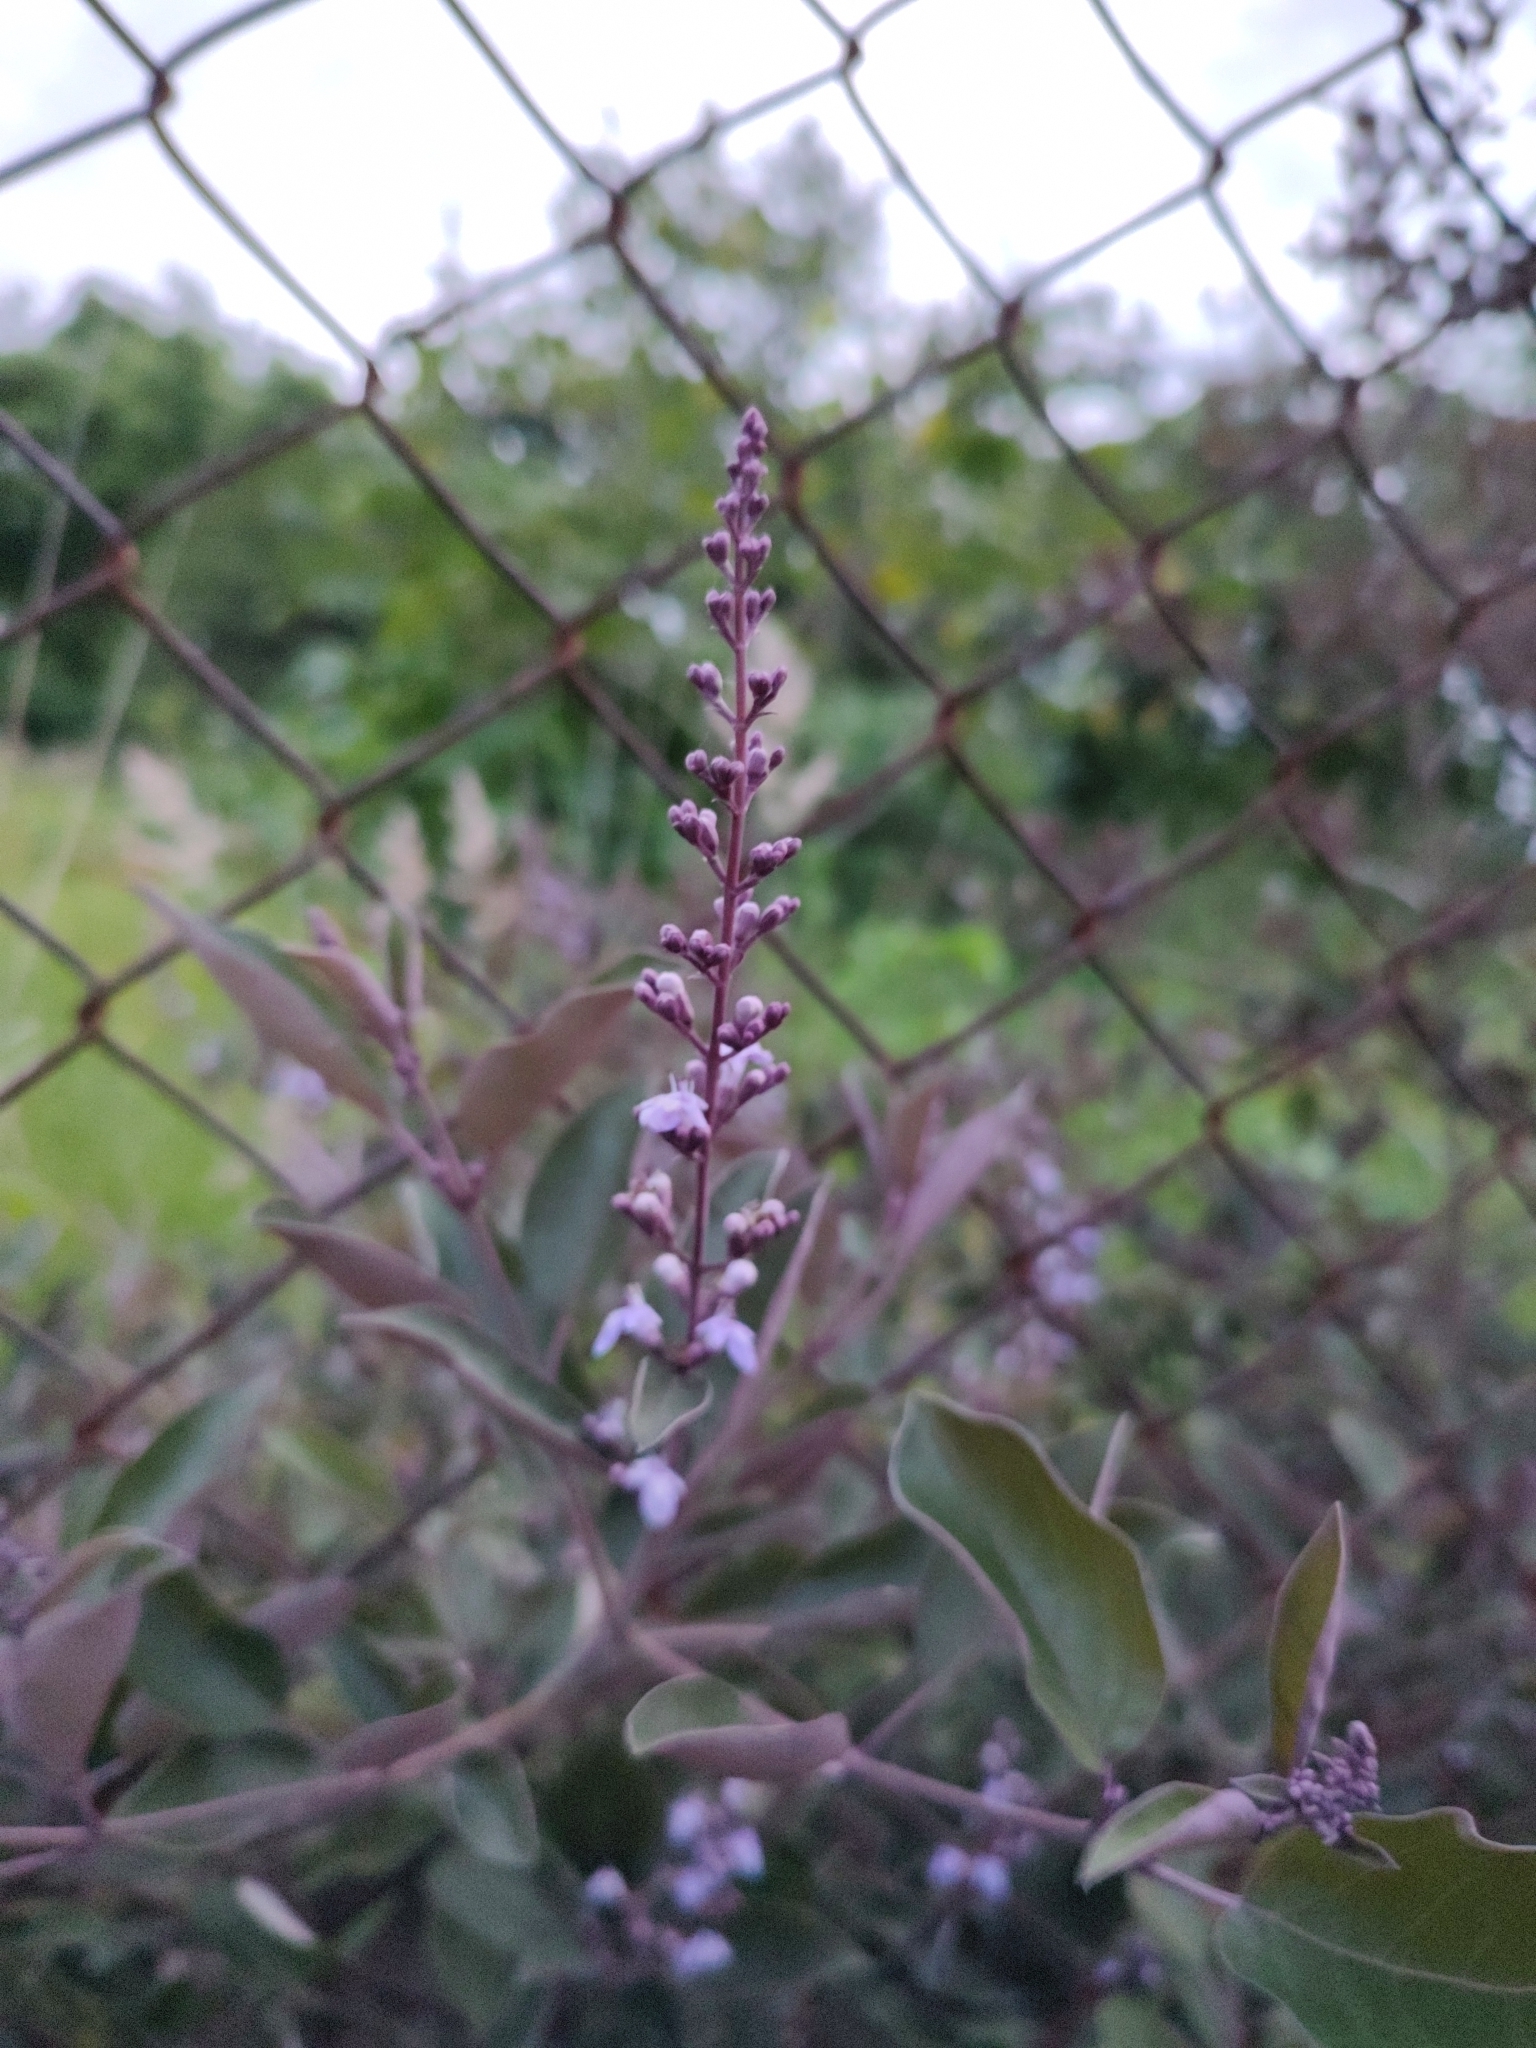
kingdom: Plantae
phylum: Tracheophyta
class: Magnoliopsida
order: Lamiales
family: Lamiaceae
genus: Vitex
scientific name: Vitex trifolia
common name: Simpleleaf chastetree
